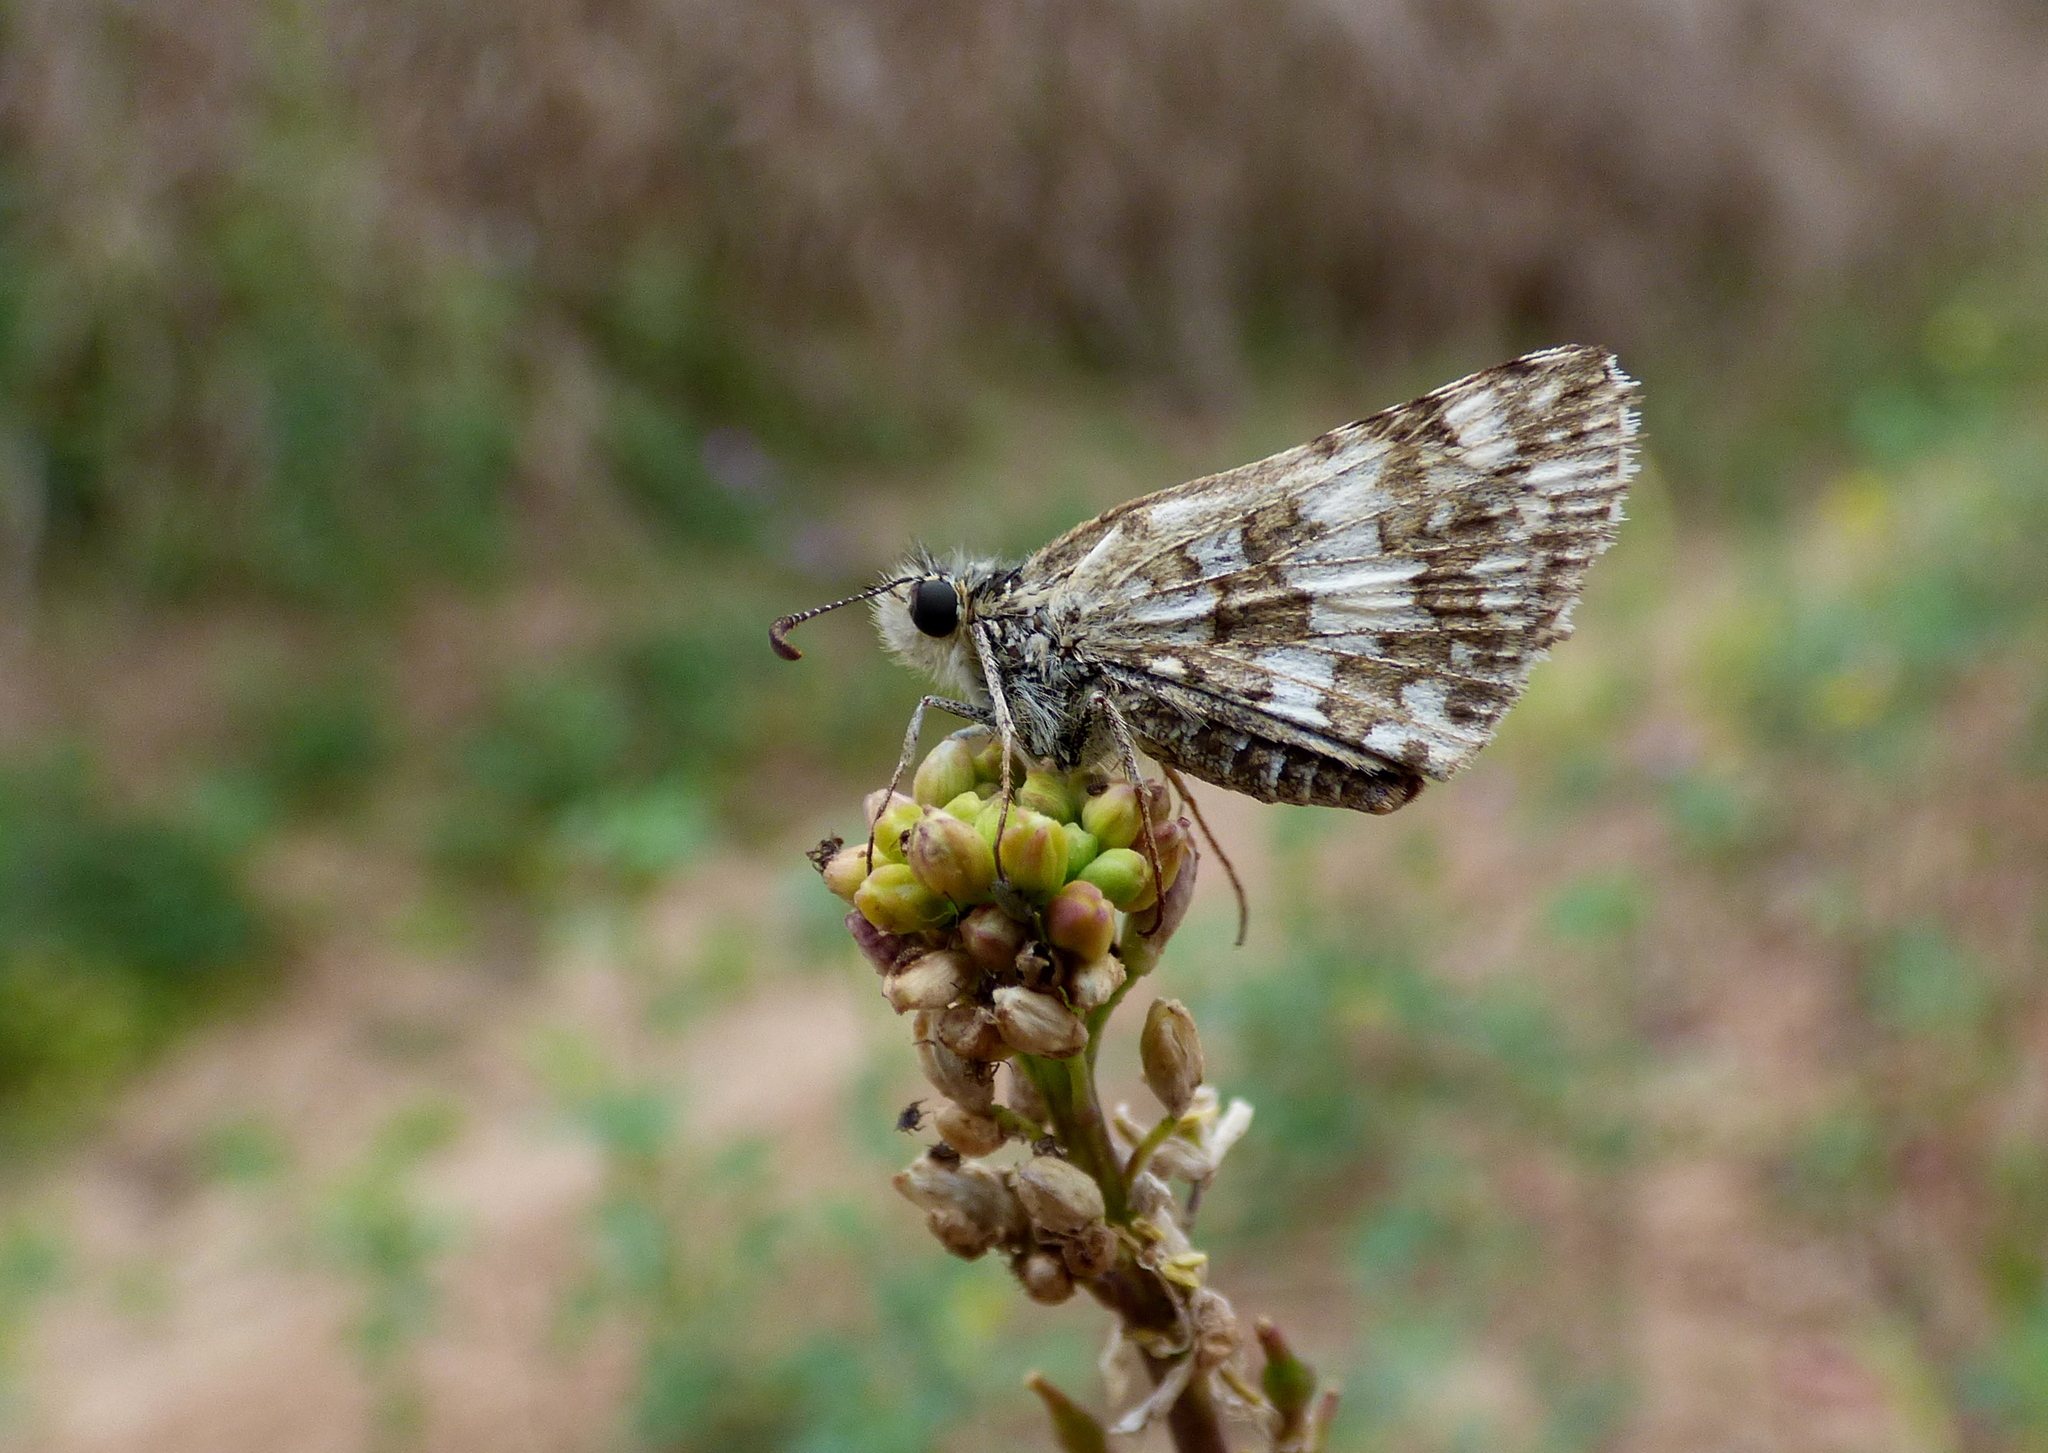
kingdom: Animalia
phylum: Arthropoda
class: Insecta
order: Lepidoptera
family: Hesperiidae
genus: Burnsius
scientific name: Burnsius orcynoides
